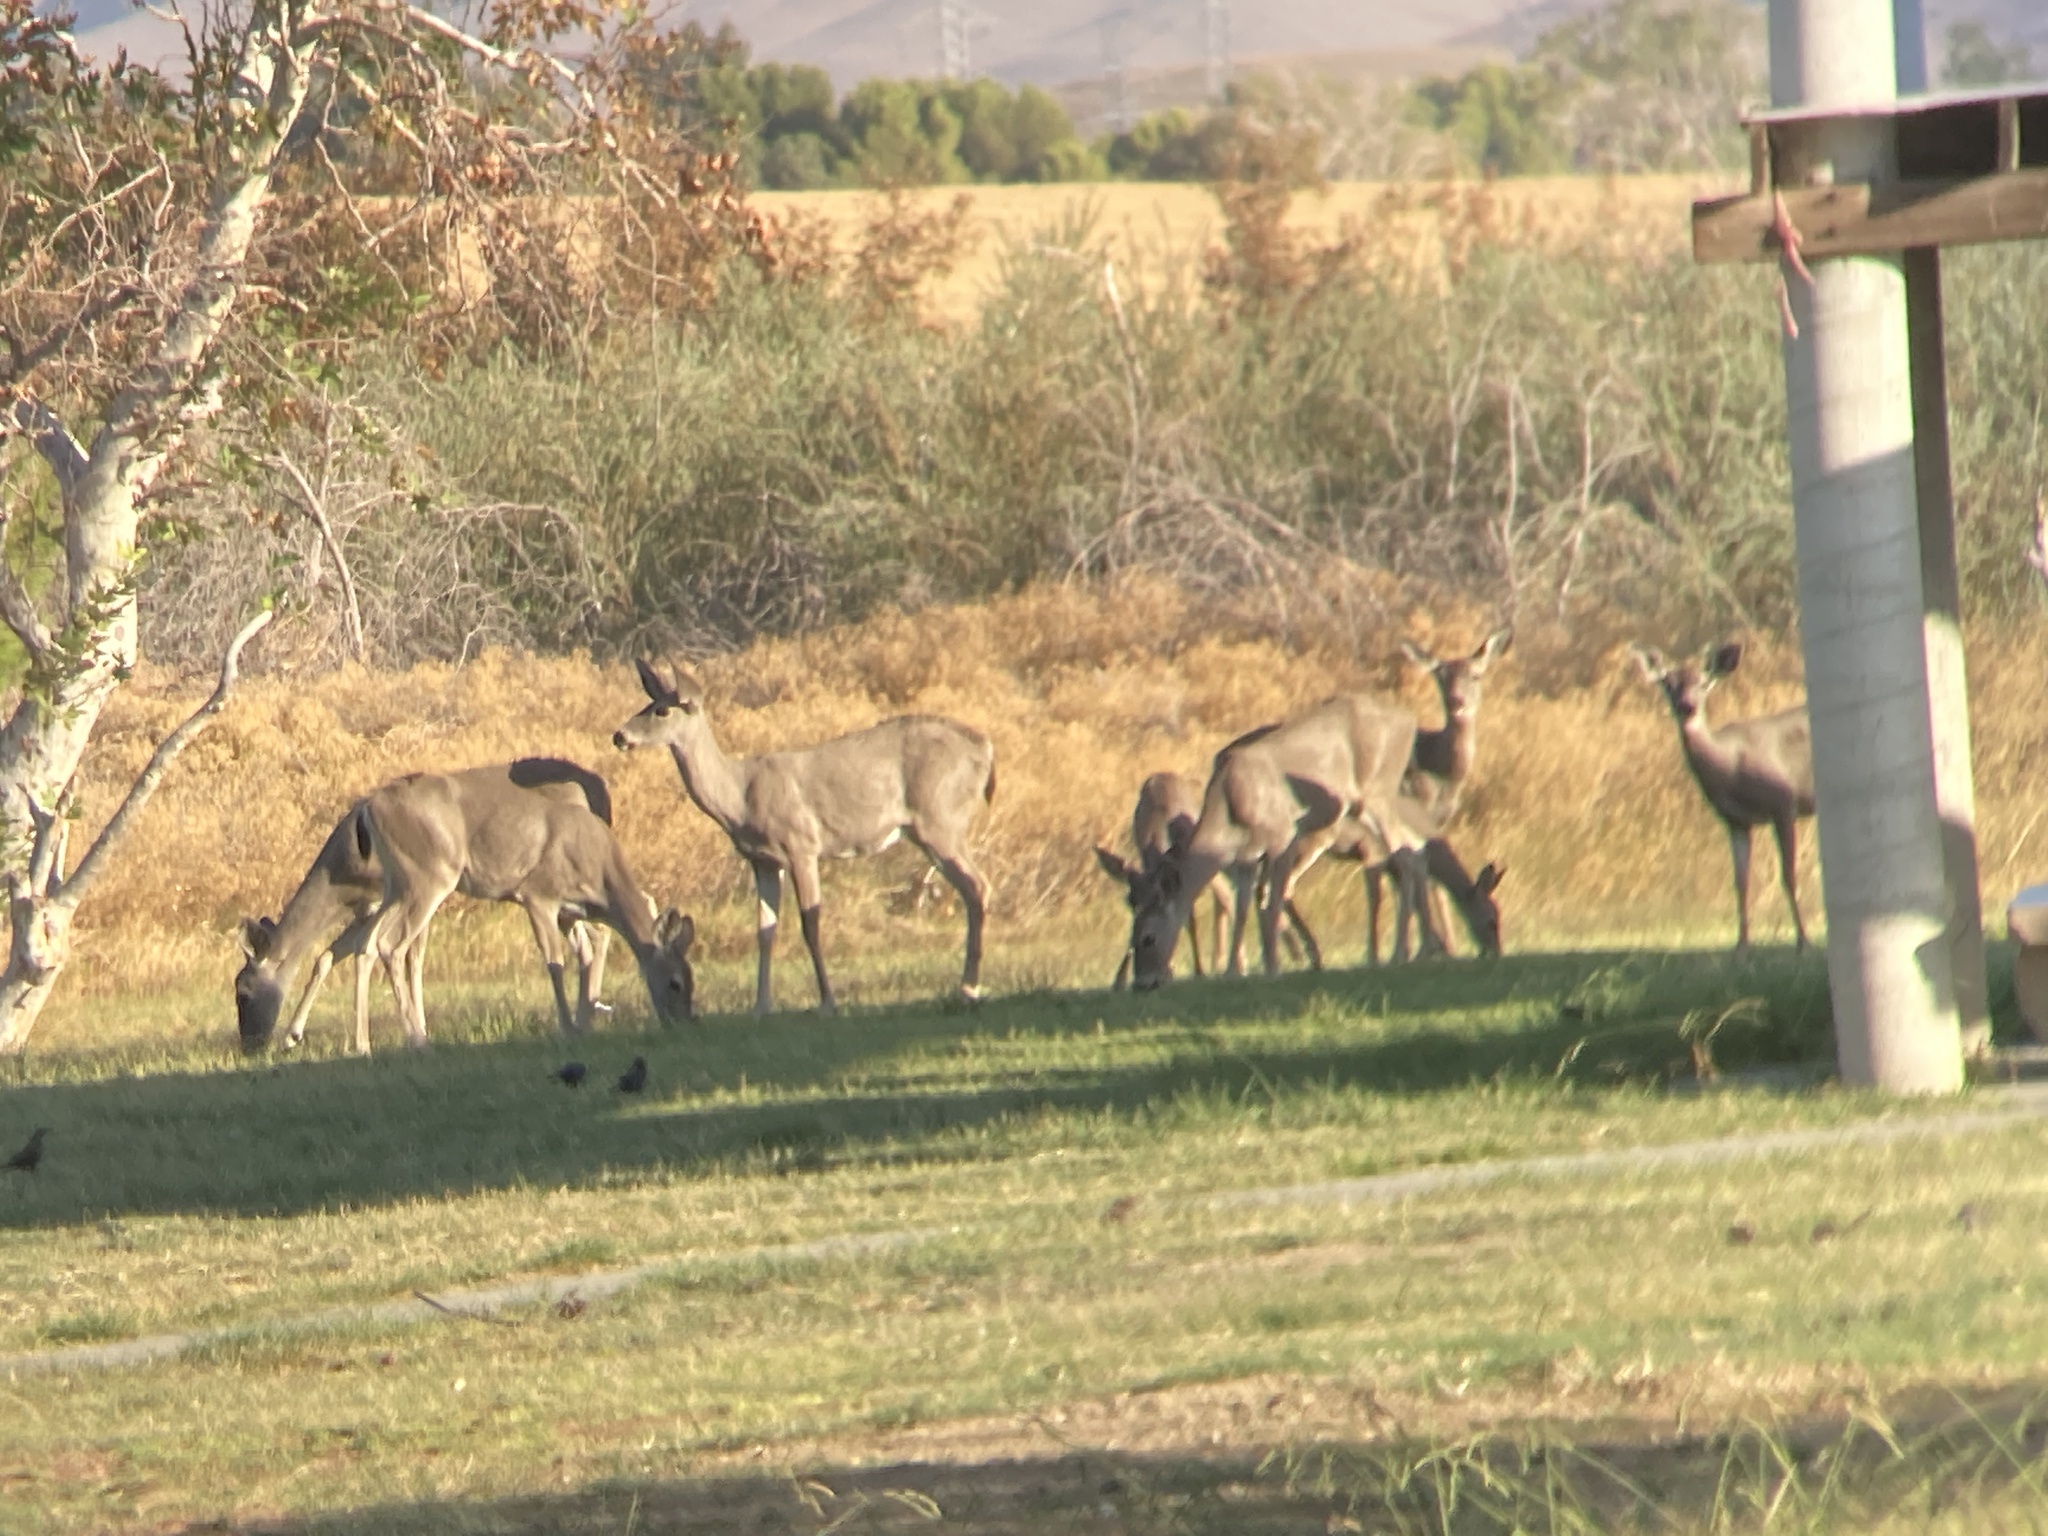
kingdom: Animalia
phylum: Chordata
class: Mammalia
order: Artiodactyla
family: Cervidae
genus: Odocoileus
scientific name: Odocoileus hemionus
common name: Mule deer
